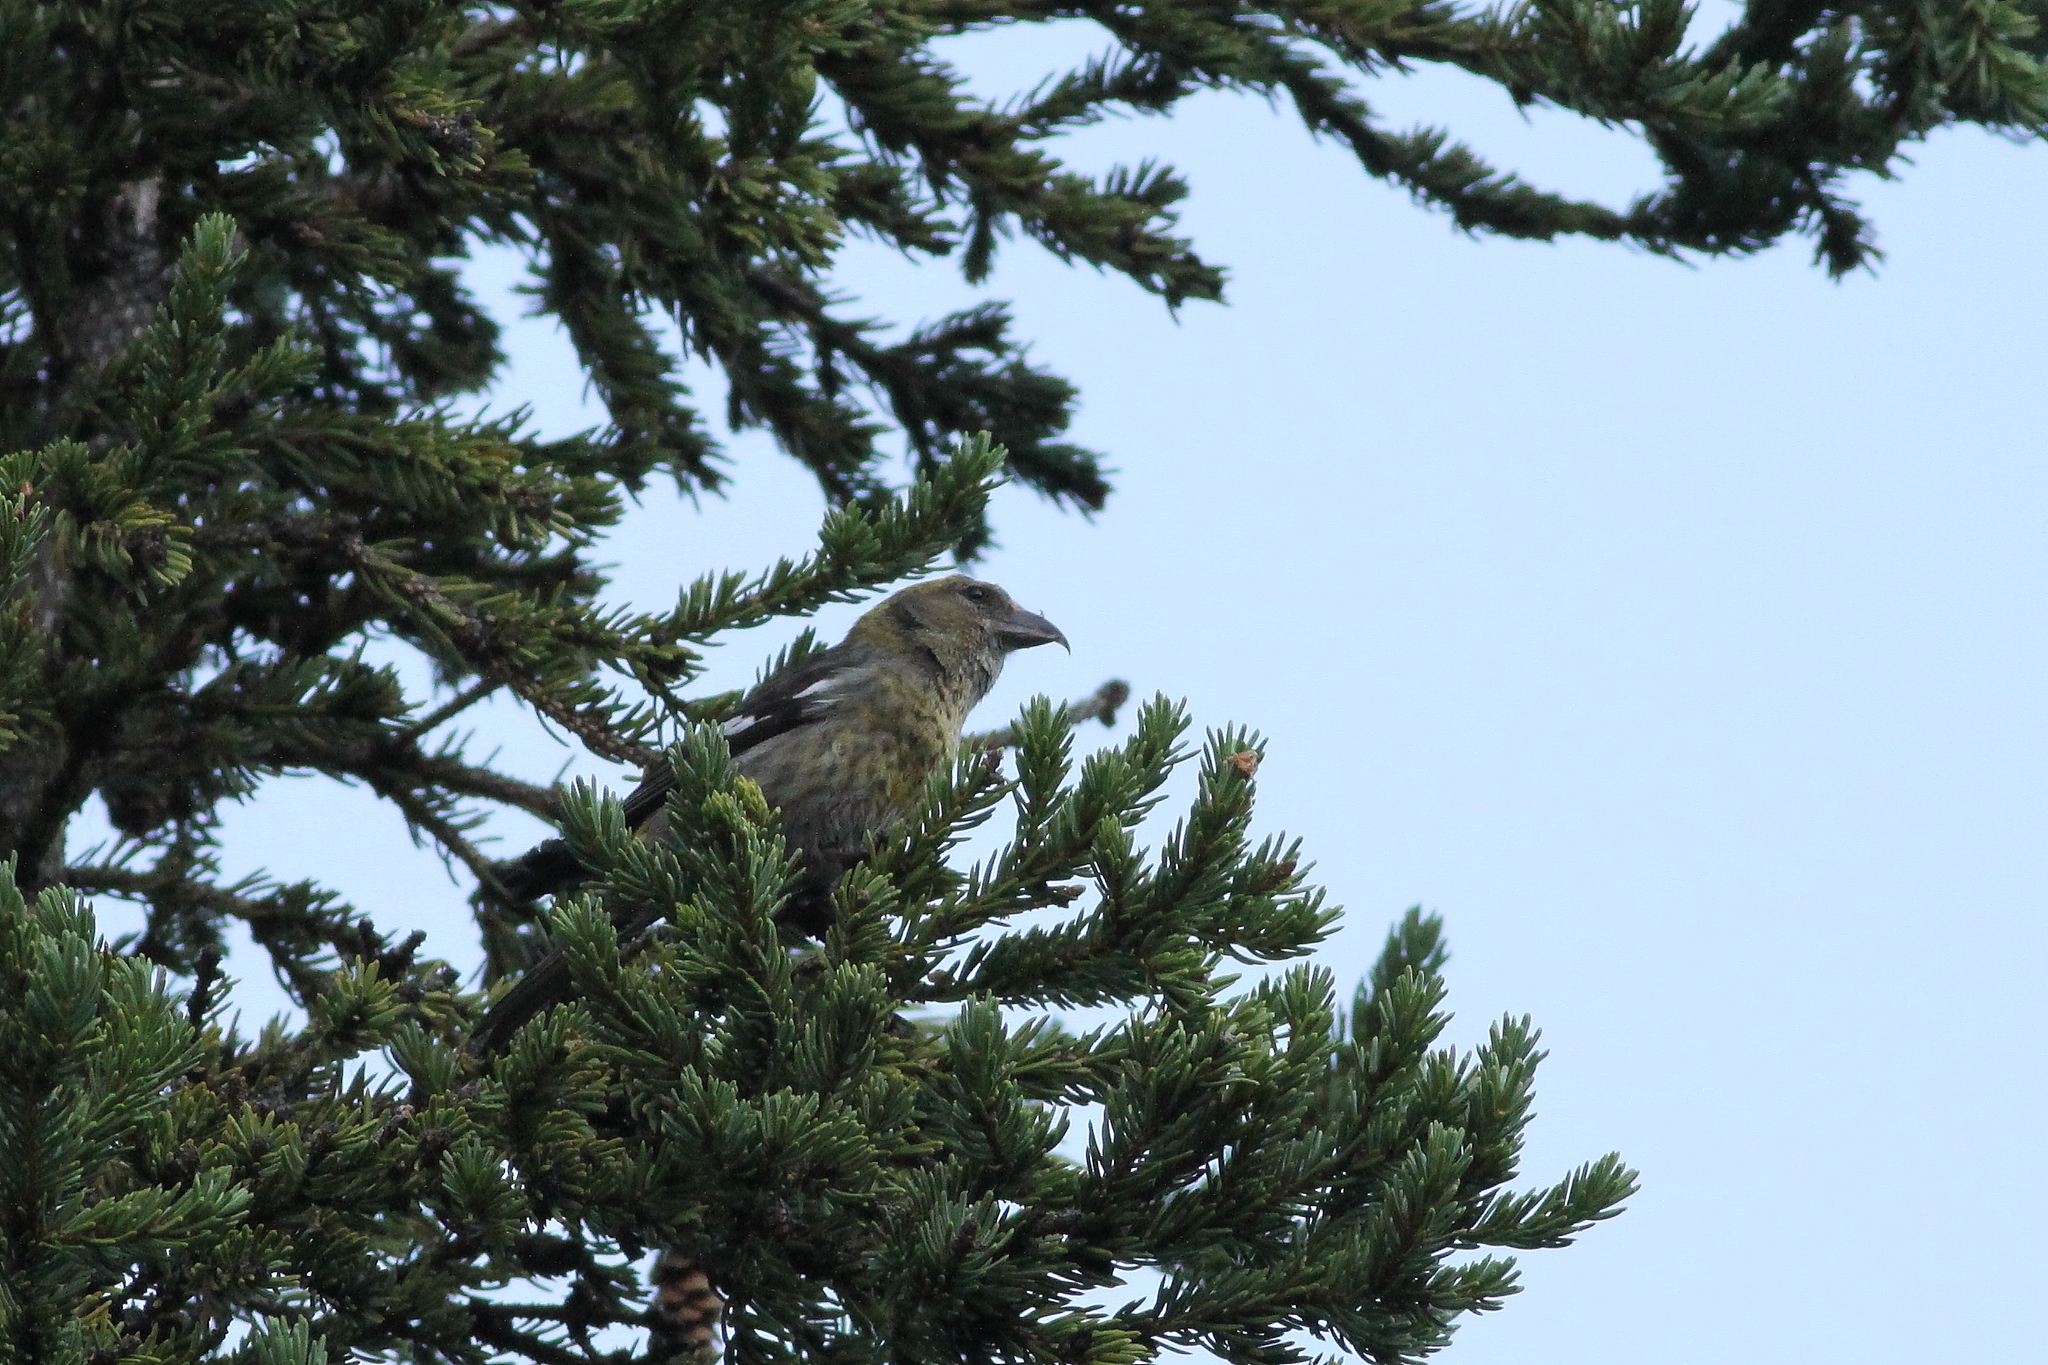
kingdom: Animalia
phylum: Chordata
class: Aves
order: Passeriformes
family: Fringillidae
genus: Loxia
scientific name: Loxia leucoptera
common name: Two-barred crossbill
